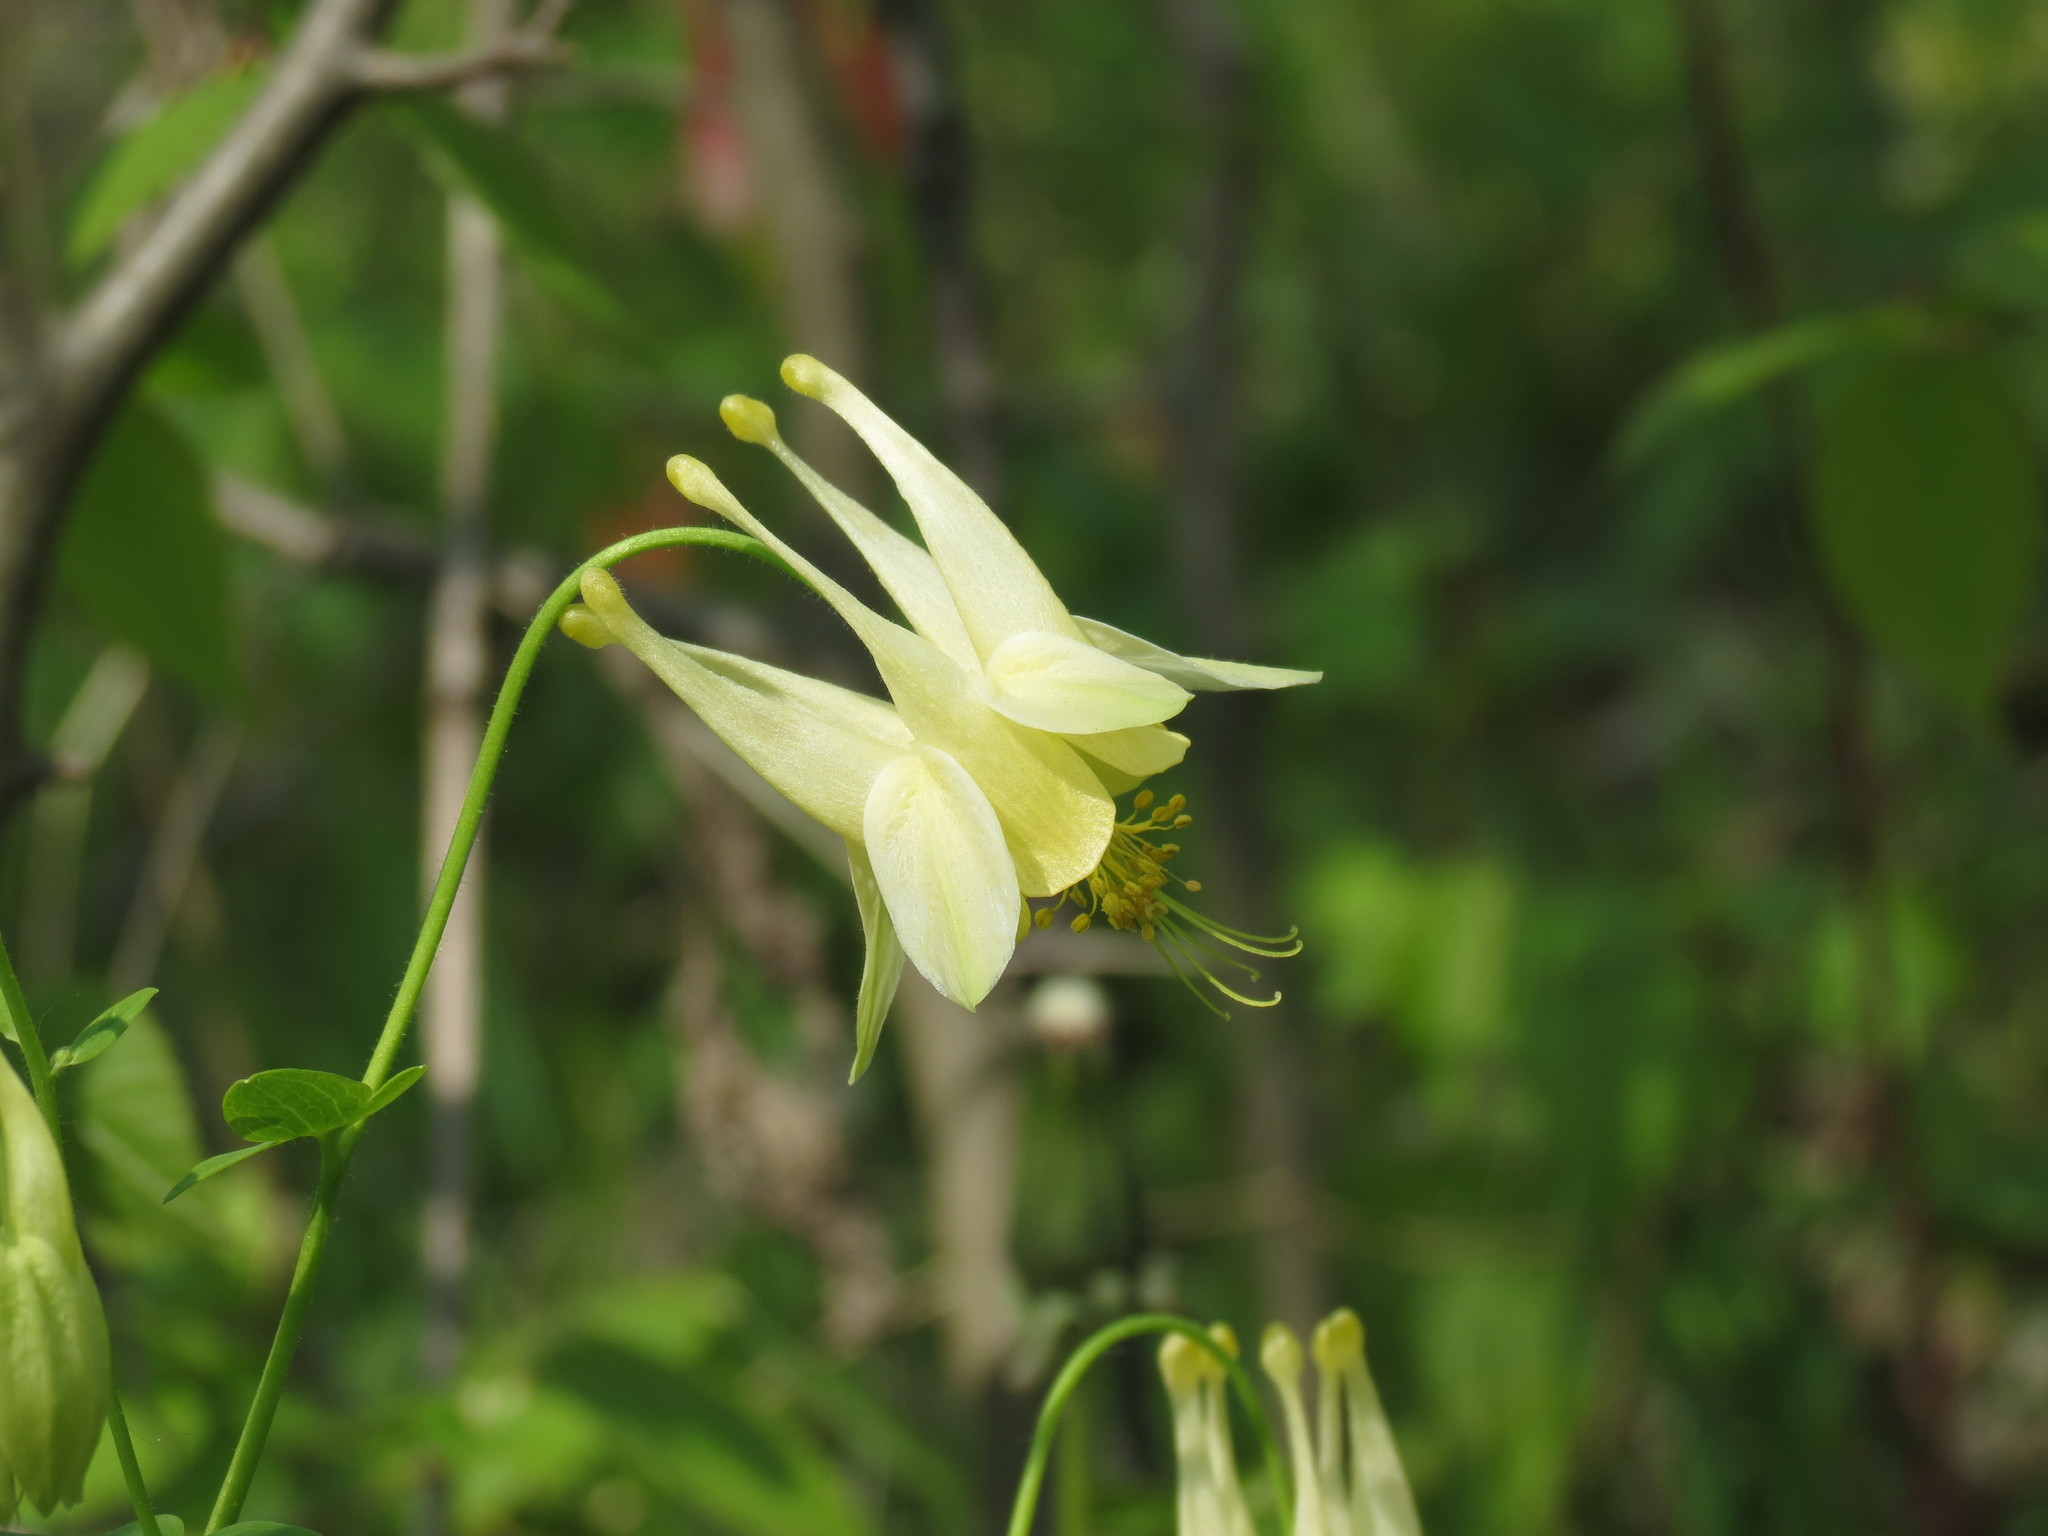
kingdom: Plantae
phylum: Tracheophyta
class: Magnoliopsida
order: Ranunculales
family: Ranunculaceae
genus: Aquilegia
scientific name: Aquilegia canadensis
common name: American columbine
